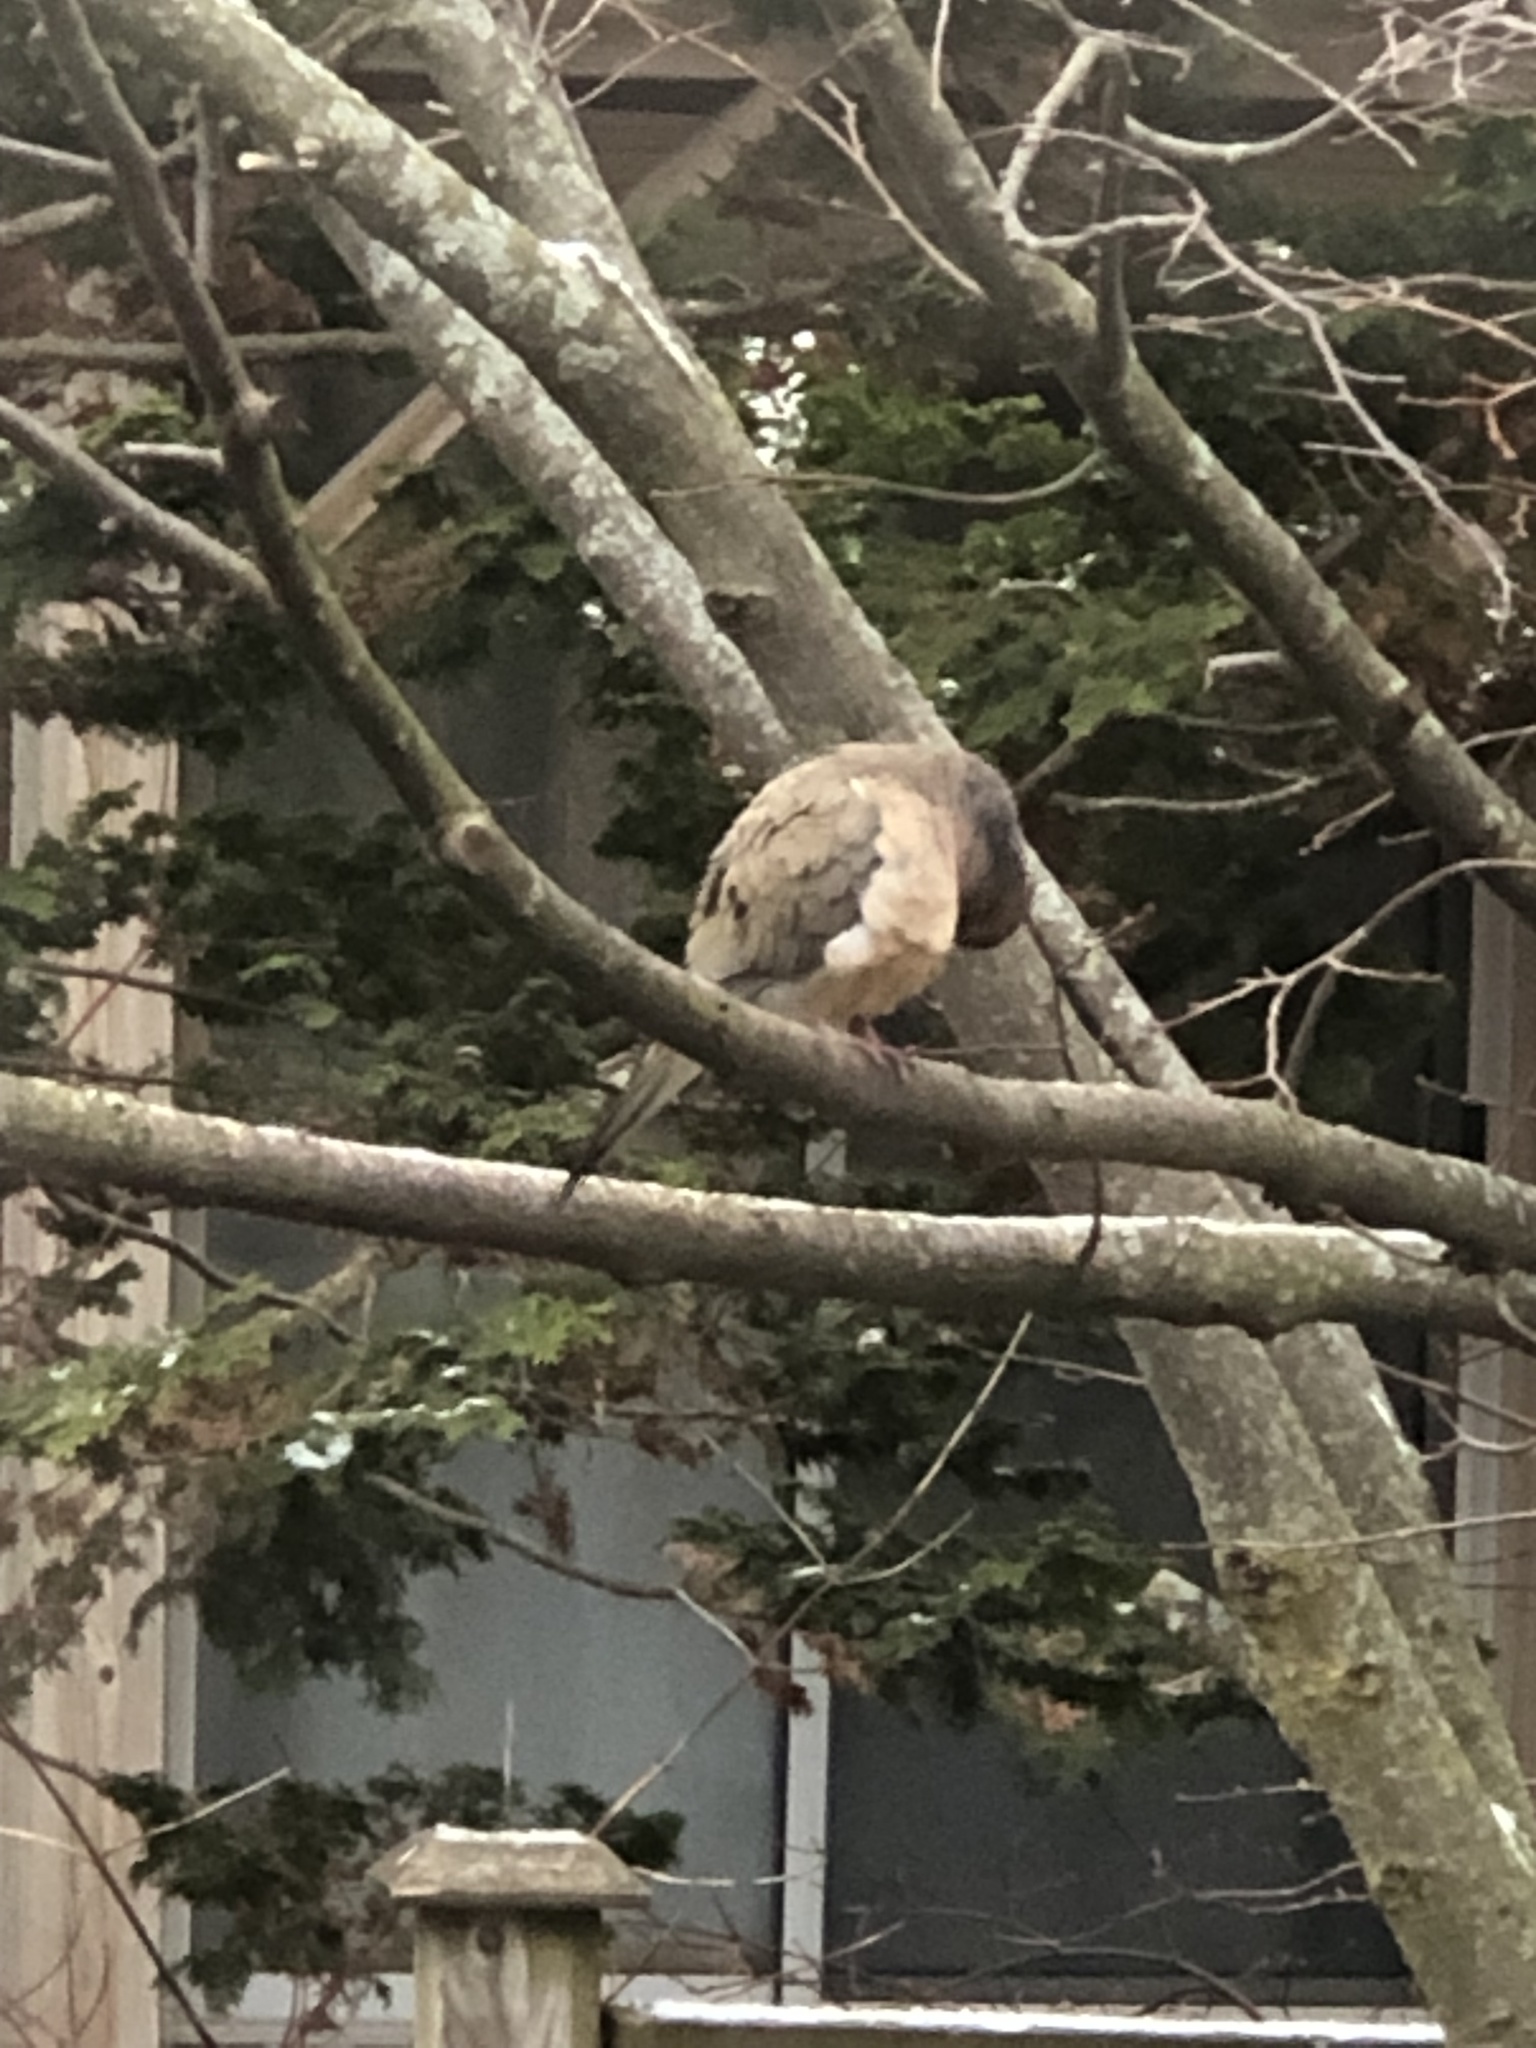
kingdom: Animalia
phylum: Chordata
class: Aves
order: Columbiformes
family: Columbidae
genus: Zenaida
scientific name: Zenaida macroura
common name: Mourning dove
